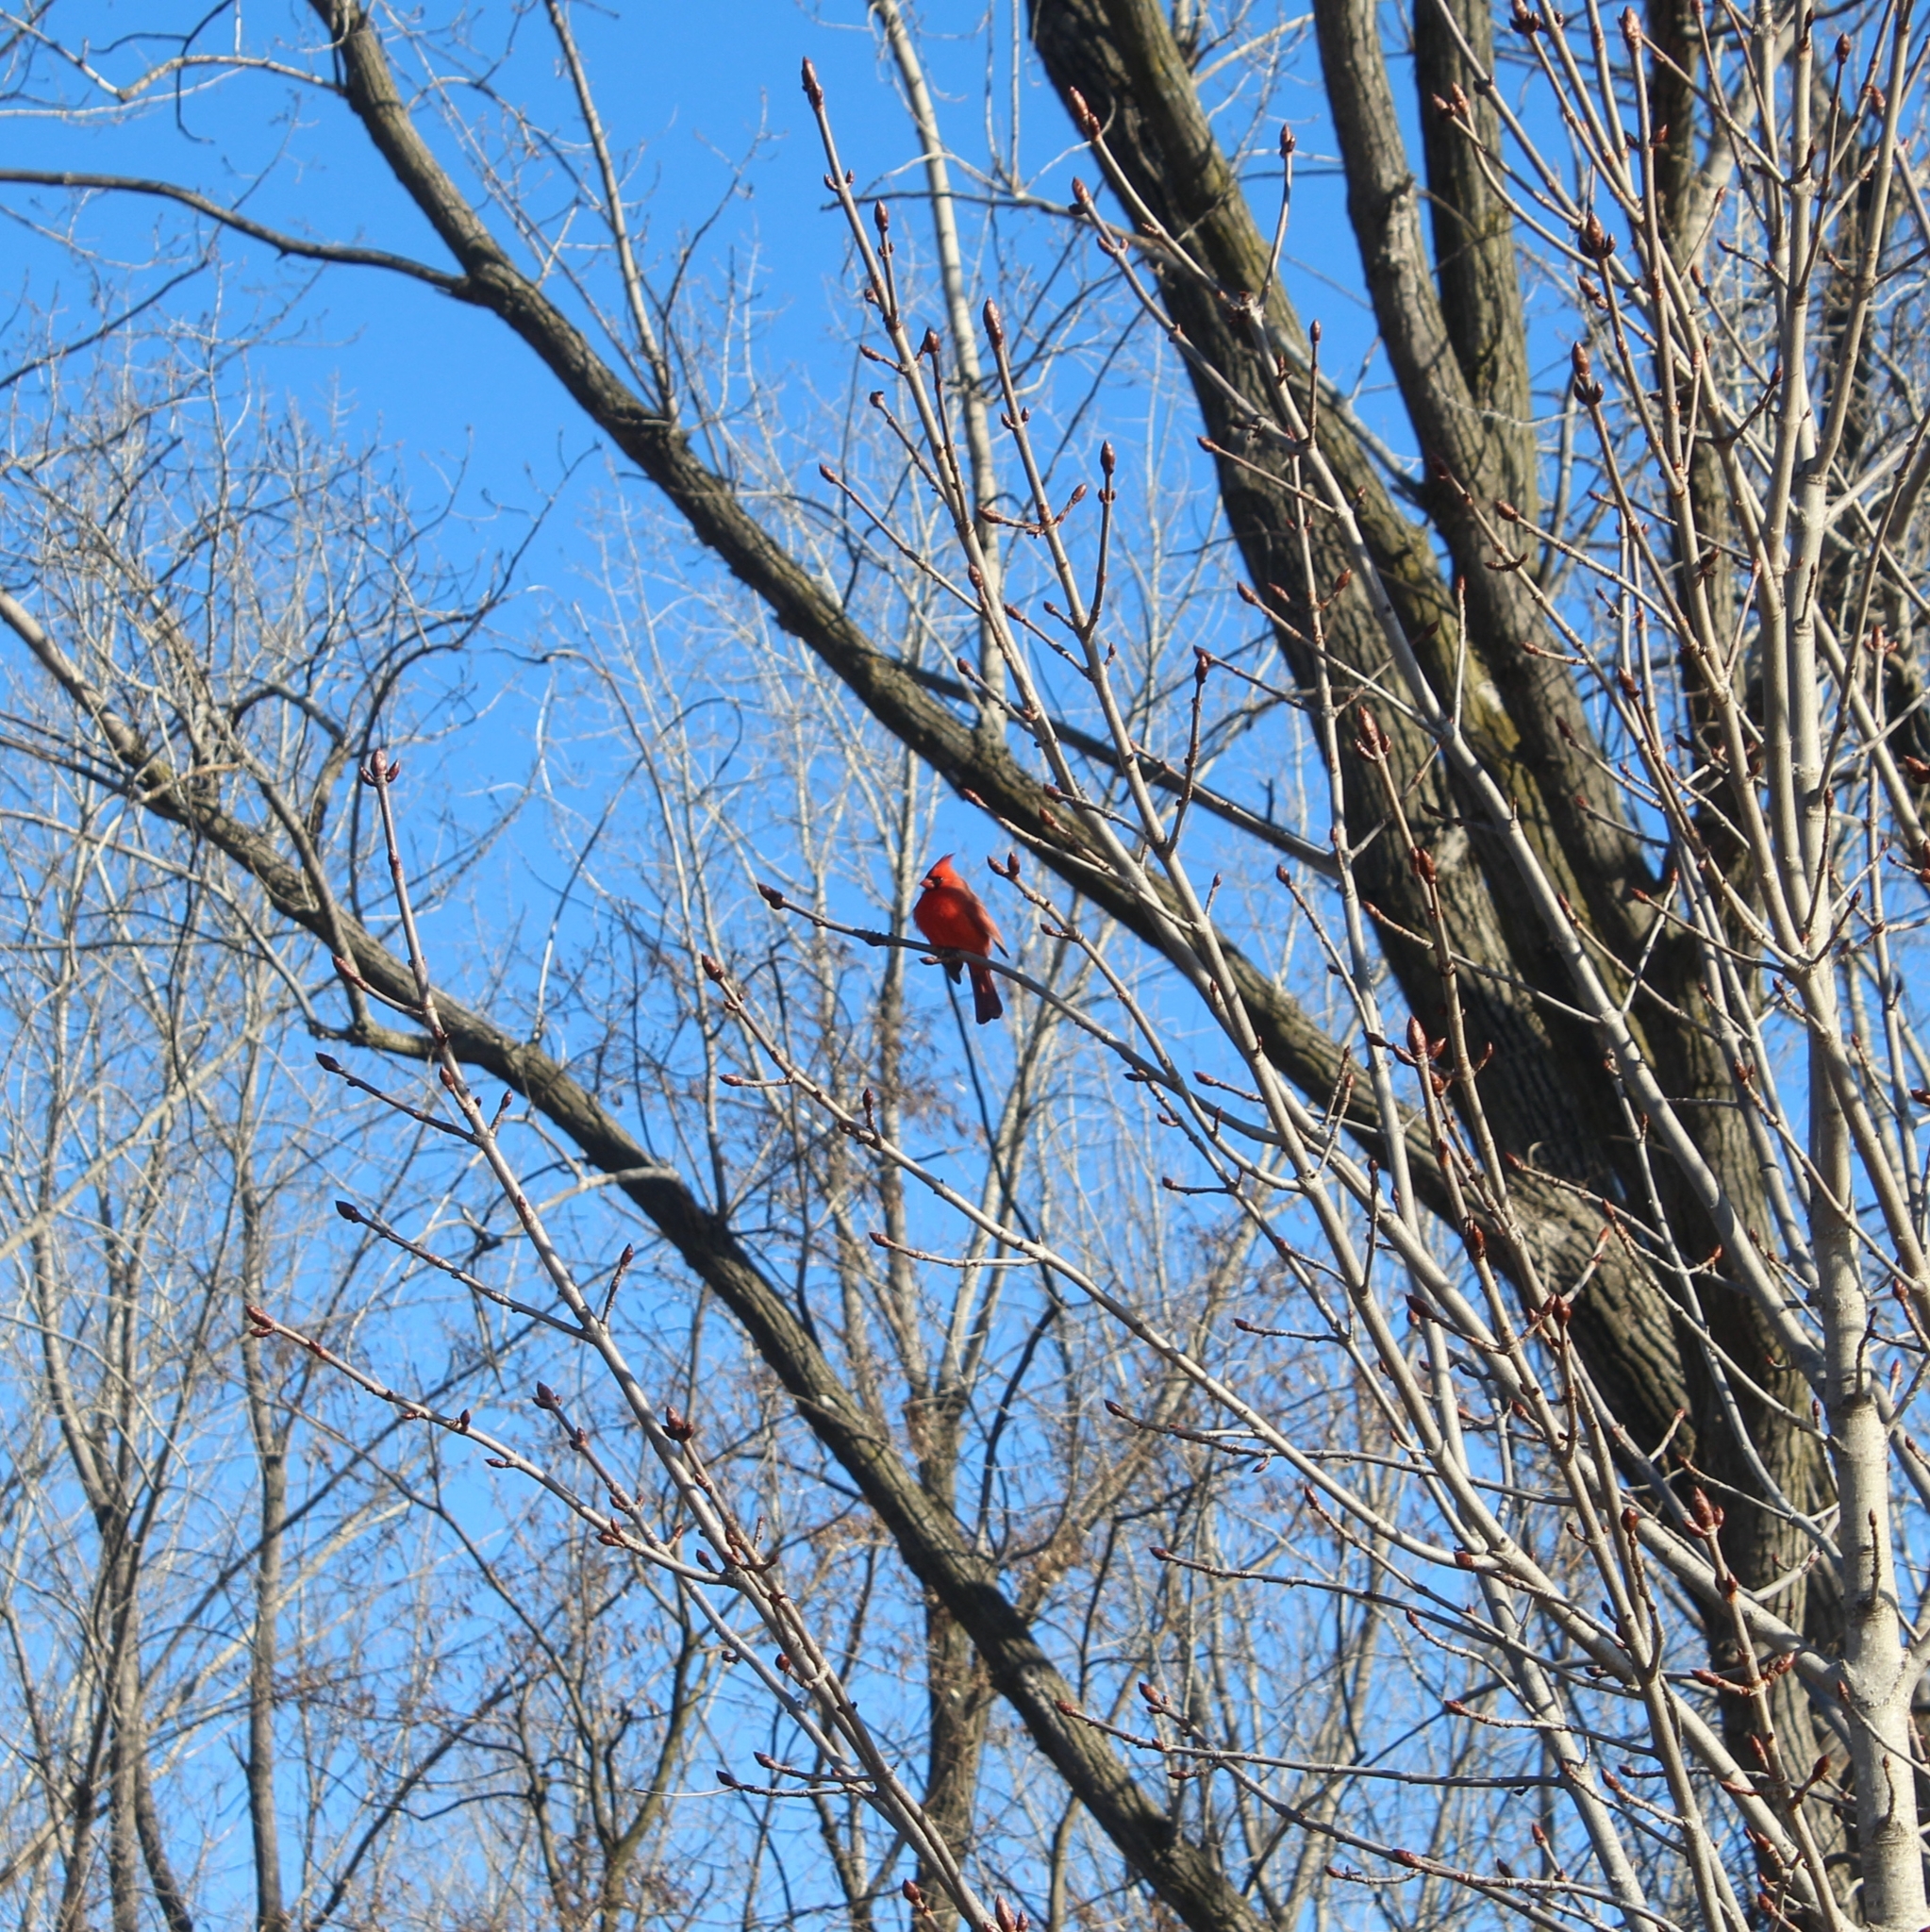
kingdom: Animalia
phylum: Chordata
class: Aves
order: Passeriformes
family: Cardinalidae
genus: Cardinalis
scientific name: Cardinalis cardinalis
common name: Northern cardinal
